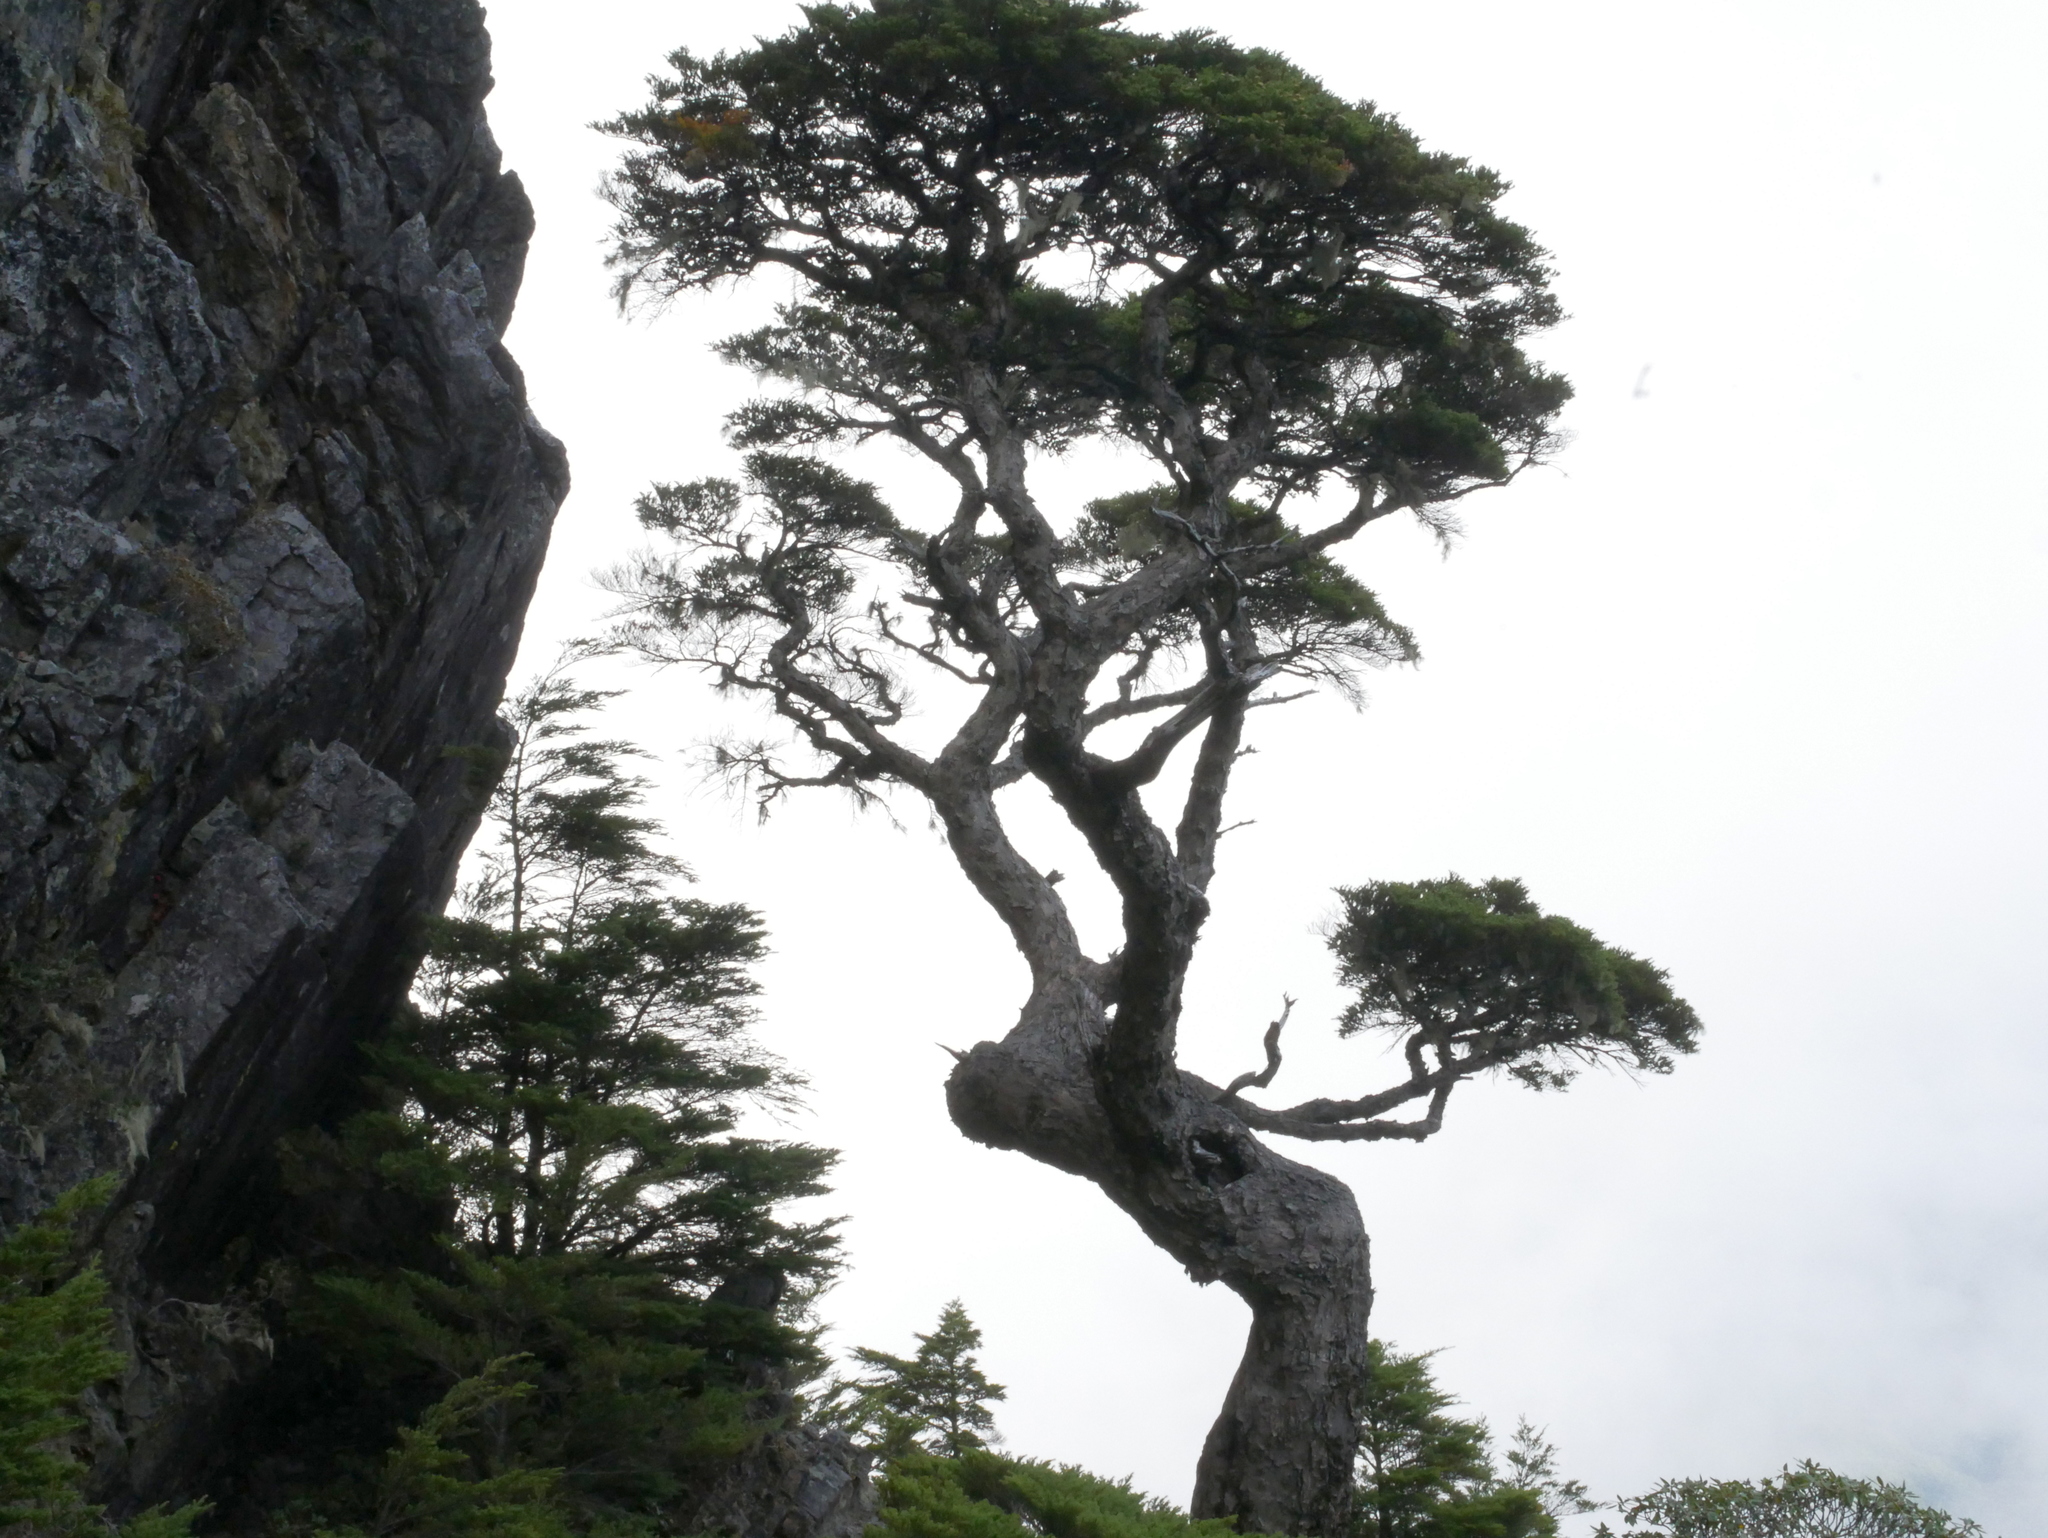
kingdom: Plantae
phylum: Tracheophyta
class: Pinopsida
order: Pinales
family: Pinaceae
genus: Tsuga
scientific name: Tsuga chinensis
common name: Chinese hemlock
